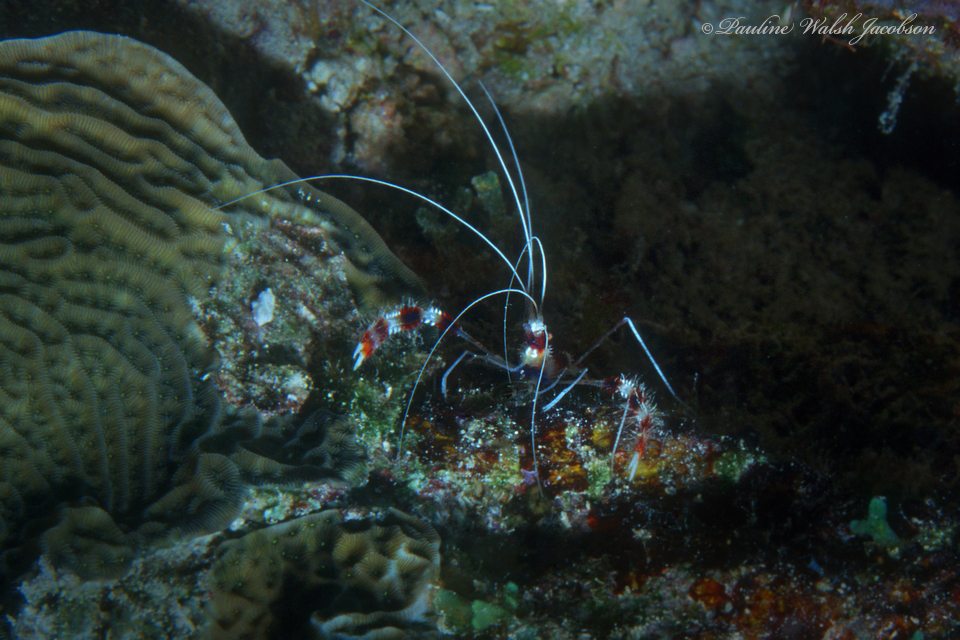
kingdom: Animalia
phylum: Arthropoda
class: Malacostraca
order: Decapoda
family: Stenopodidae
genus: Stenopus
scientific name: Stenopus hispidus
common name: Banded coral shrimp
